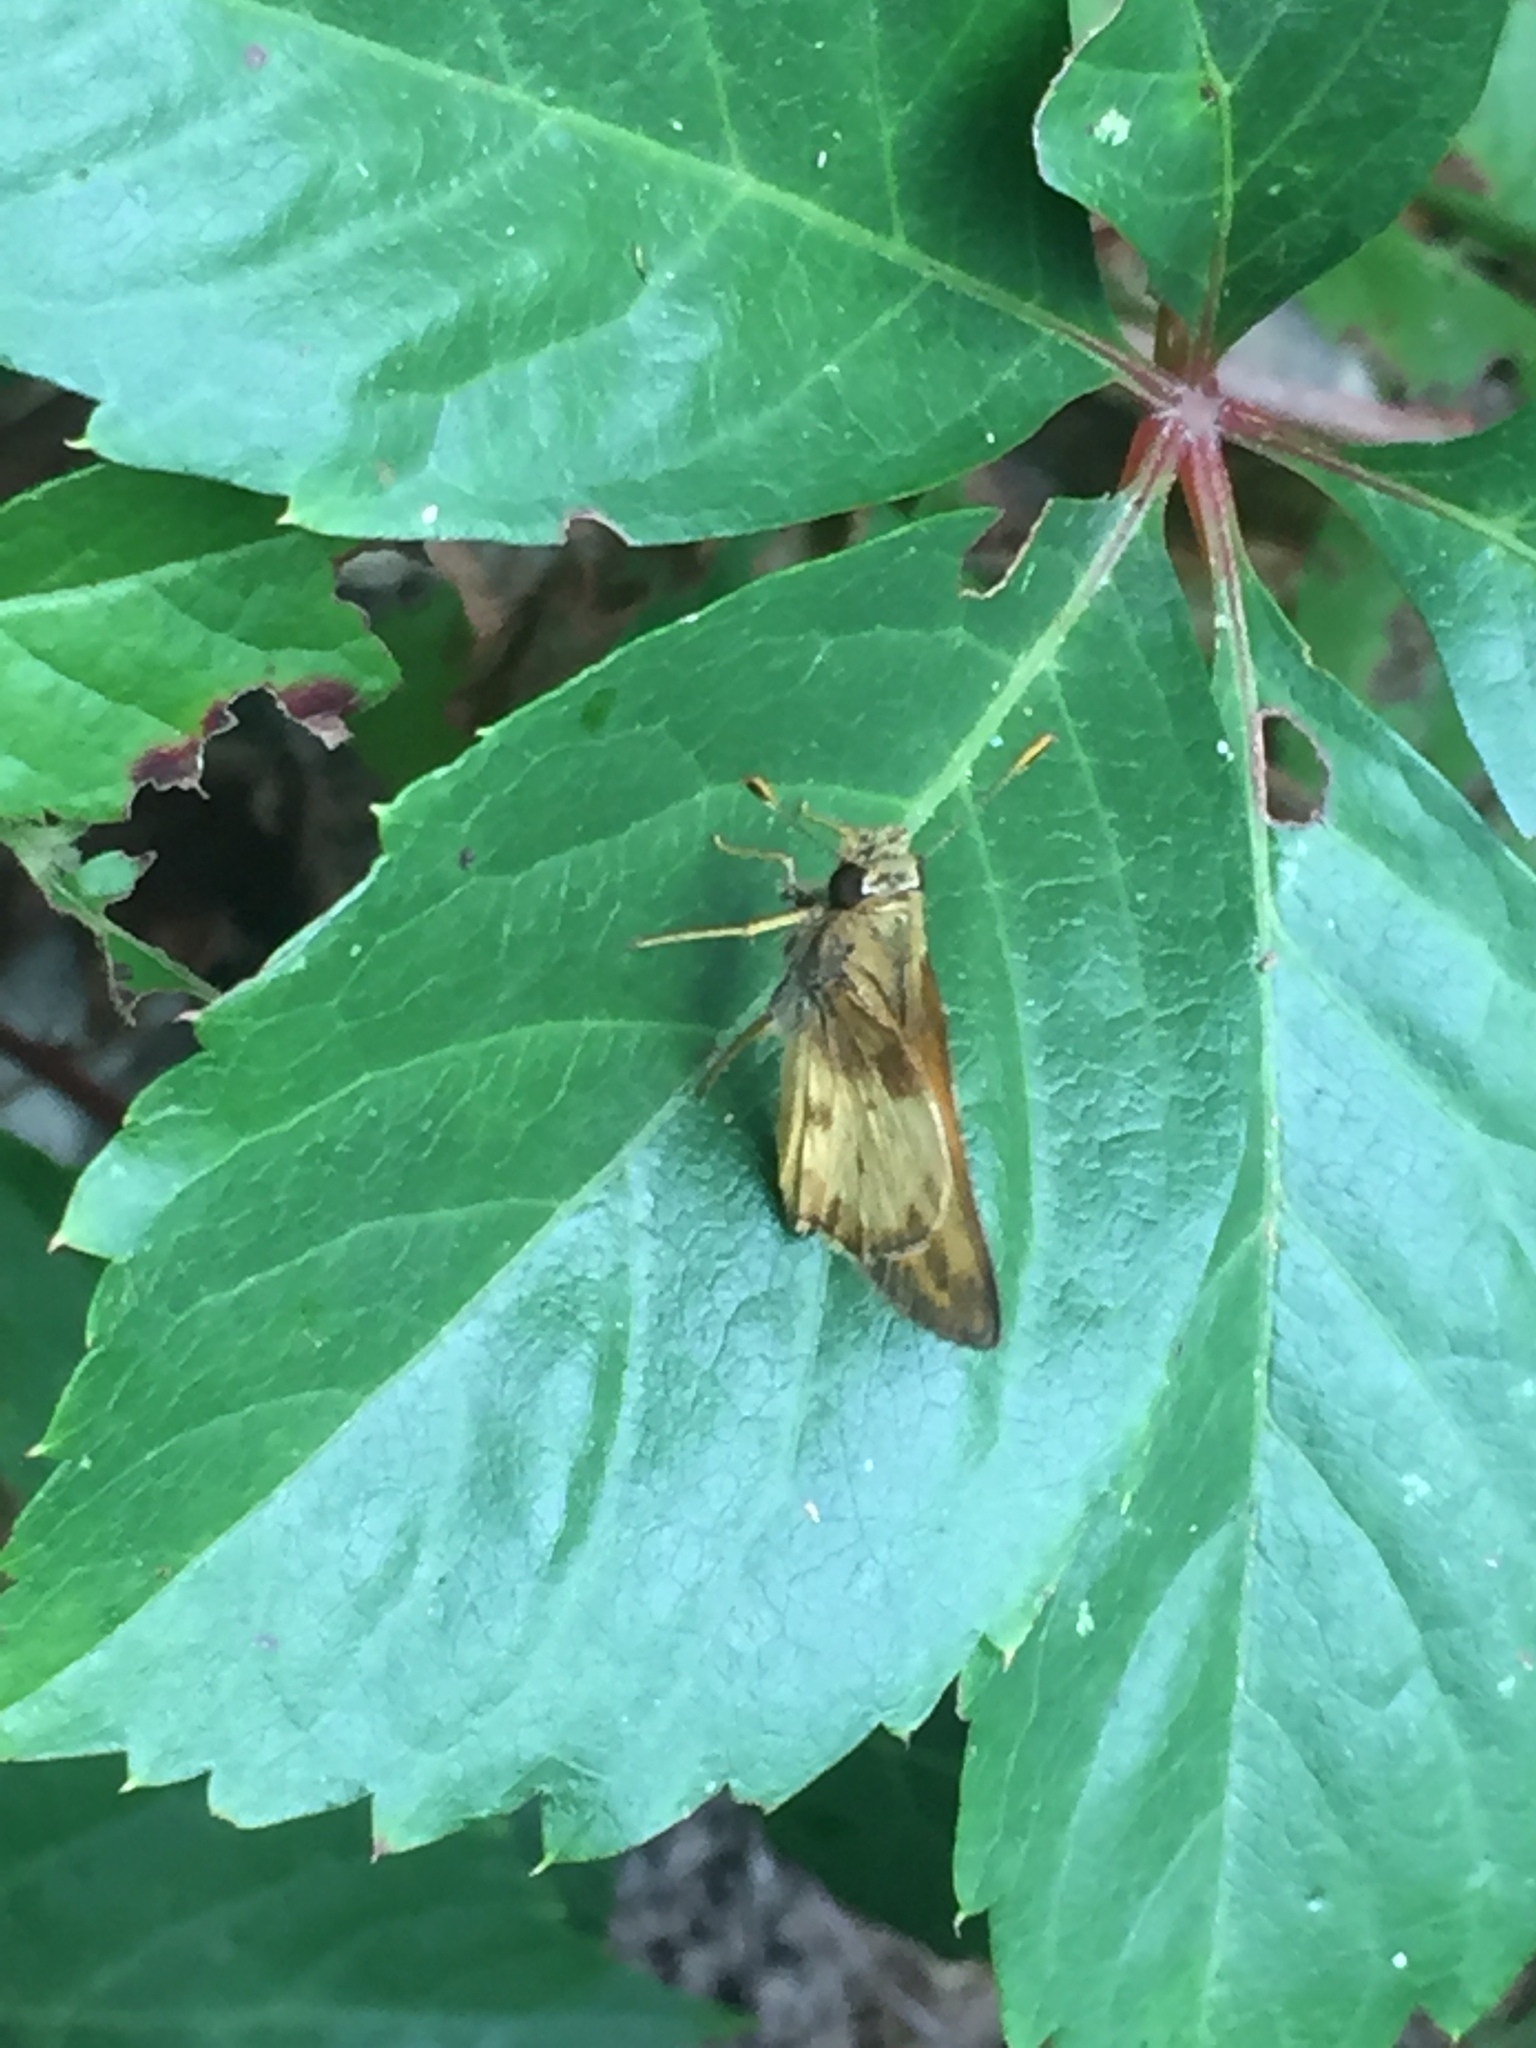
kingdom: Animalia
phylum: Arthropoda
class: Insecta
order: Lepidoptera
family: Hesperiidae
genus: Lon
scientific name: Lon zabulon
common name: Zabulon skipper
